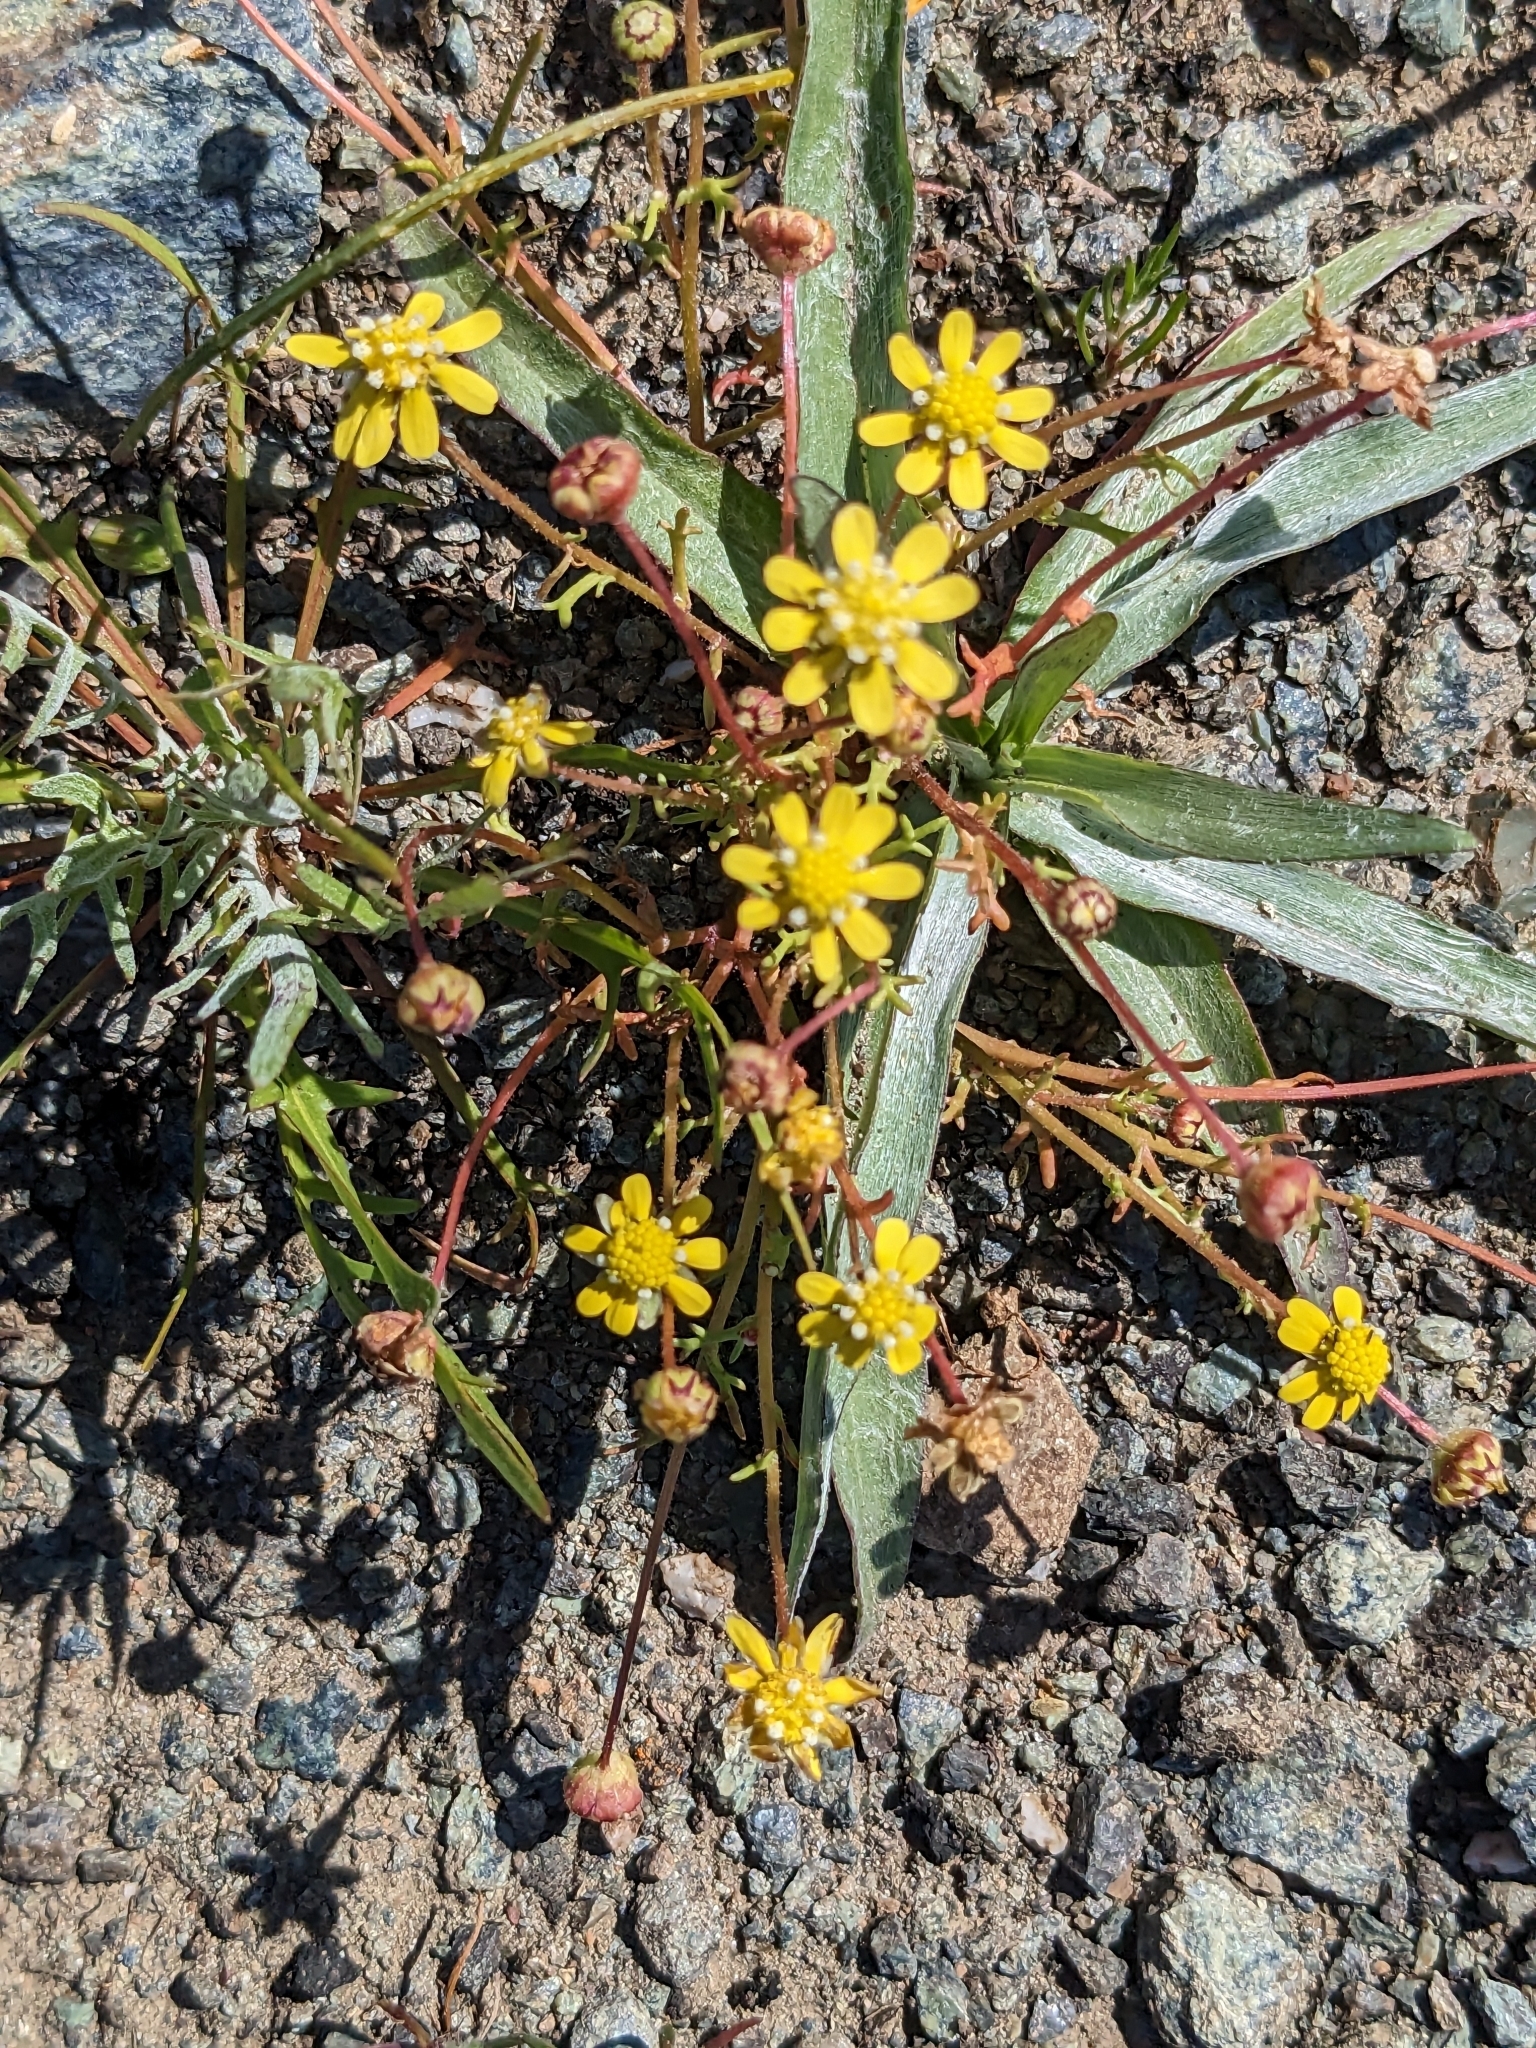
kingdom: Plantae
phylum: Tracheophyta
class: Magnoliopsida
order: Asterales
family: Asteraceae
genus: Blennosperma
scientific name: Blennosperma nanum
